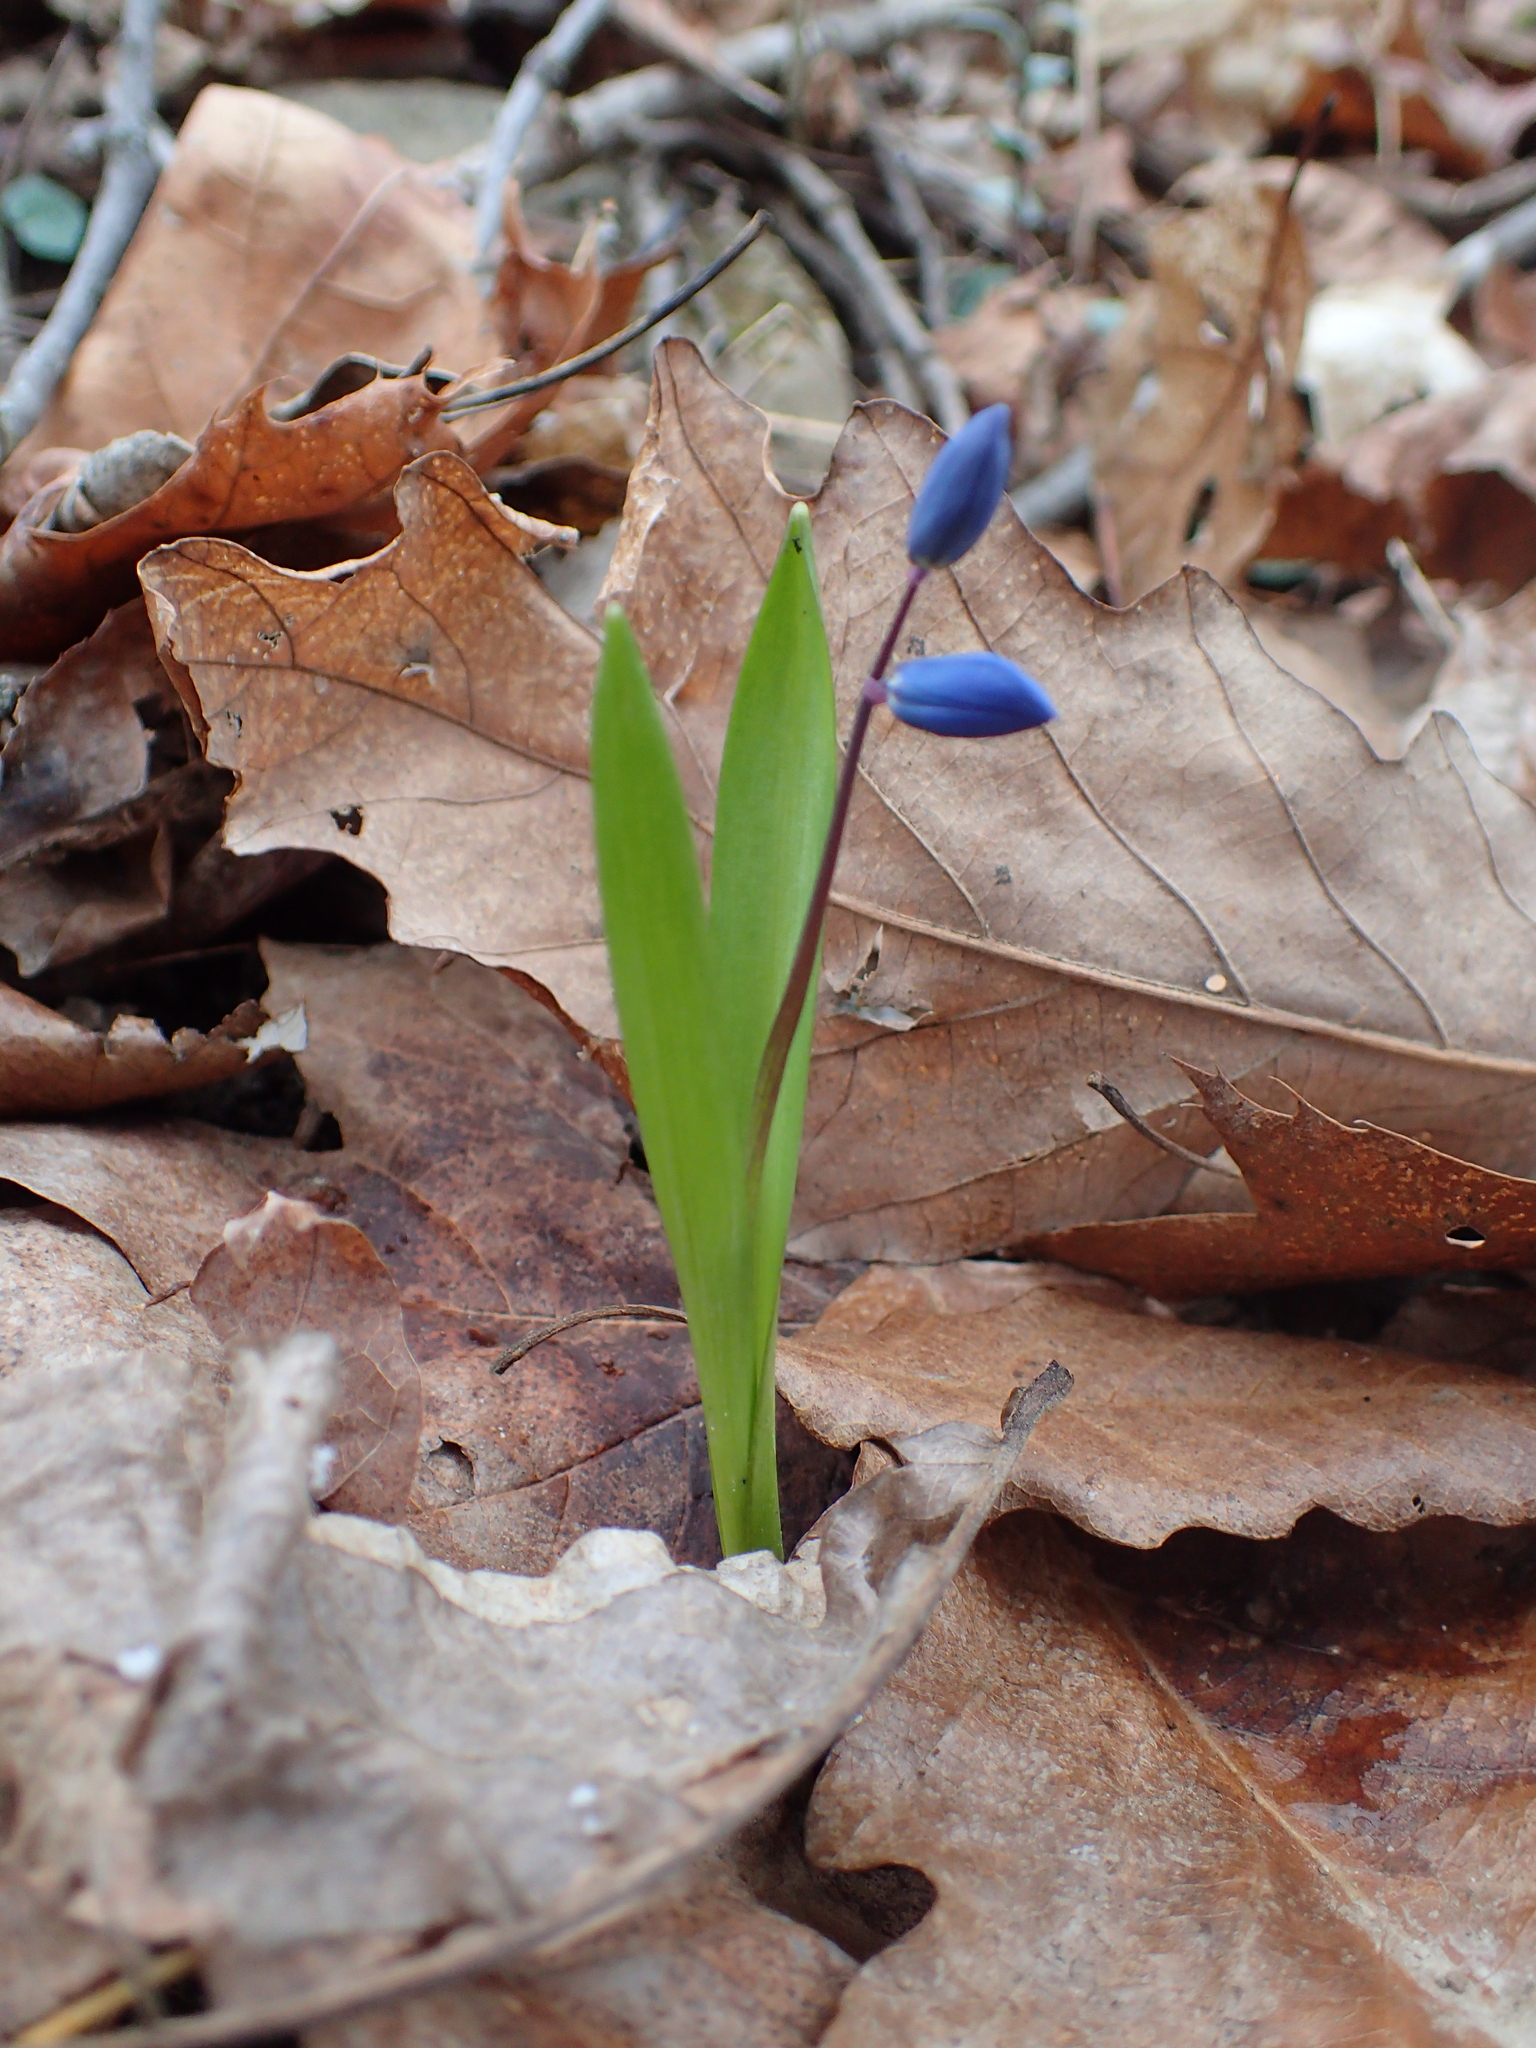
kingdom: Plantae
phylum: Tracheophyta
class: Liliopsida
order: Asparagales
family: Asparagaceae
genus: Scilla
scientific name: Scilla siberica
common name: Siberian squill
